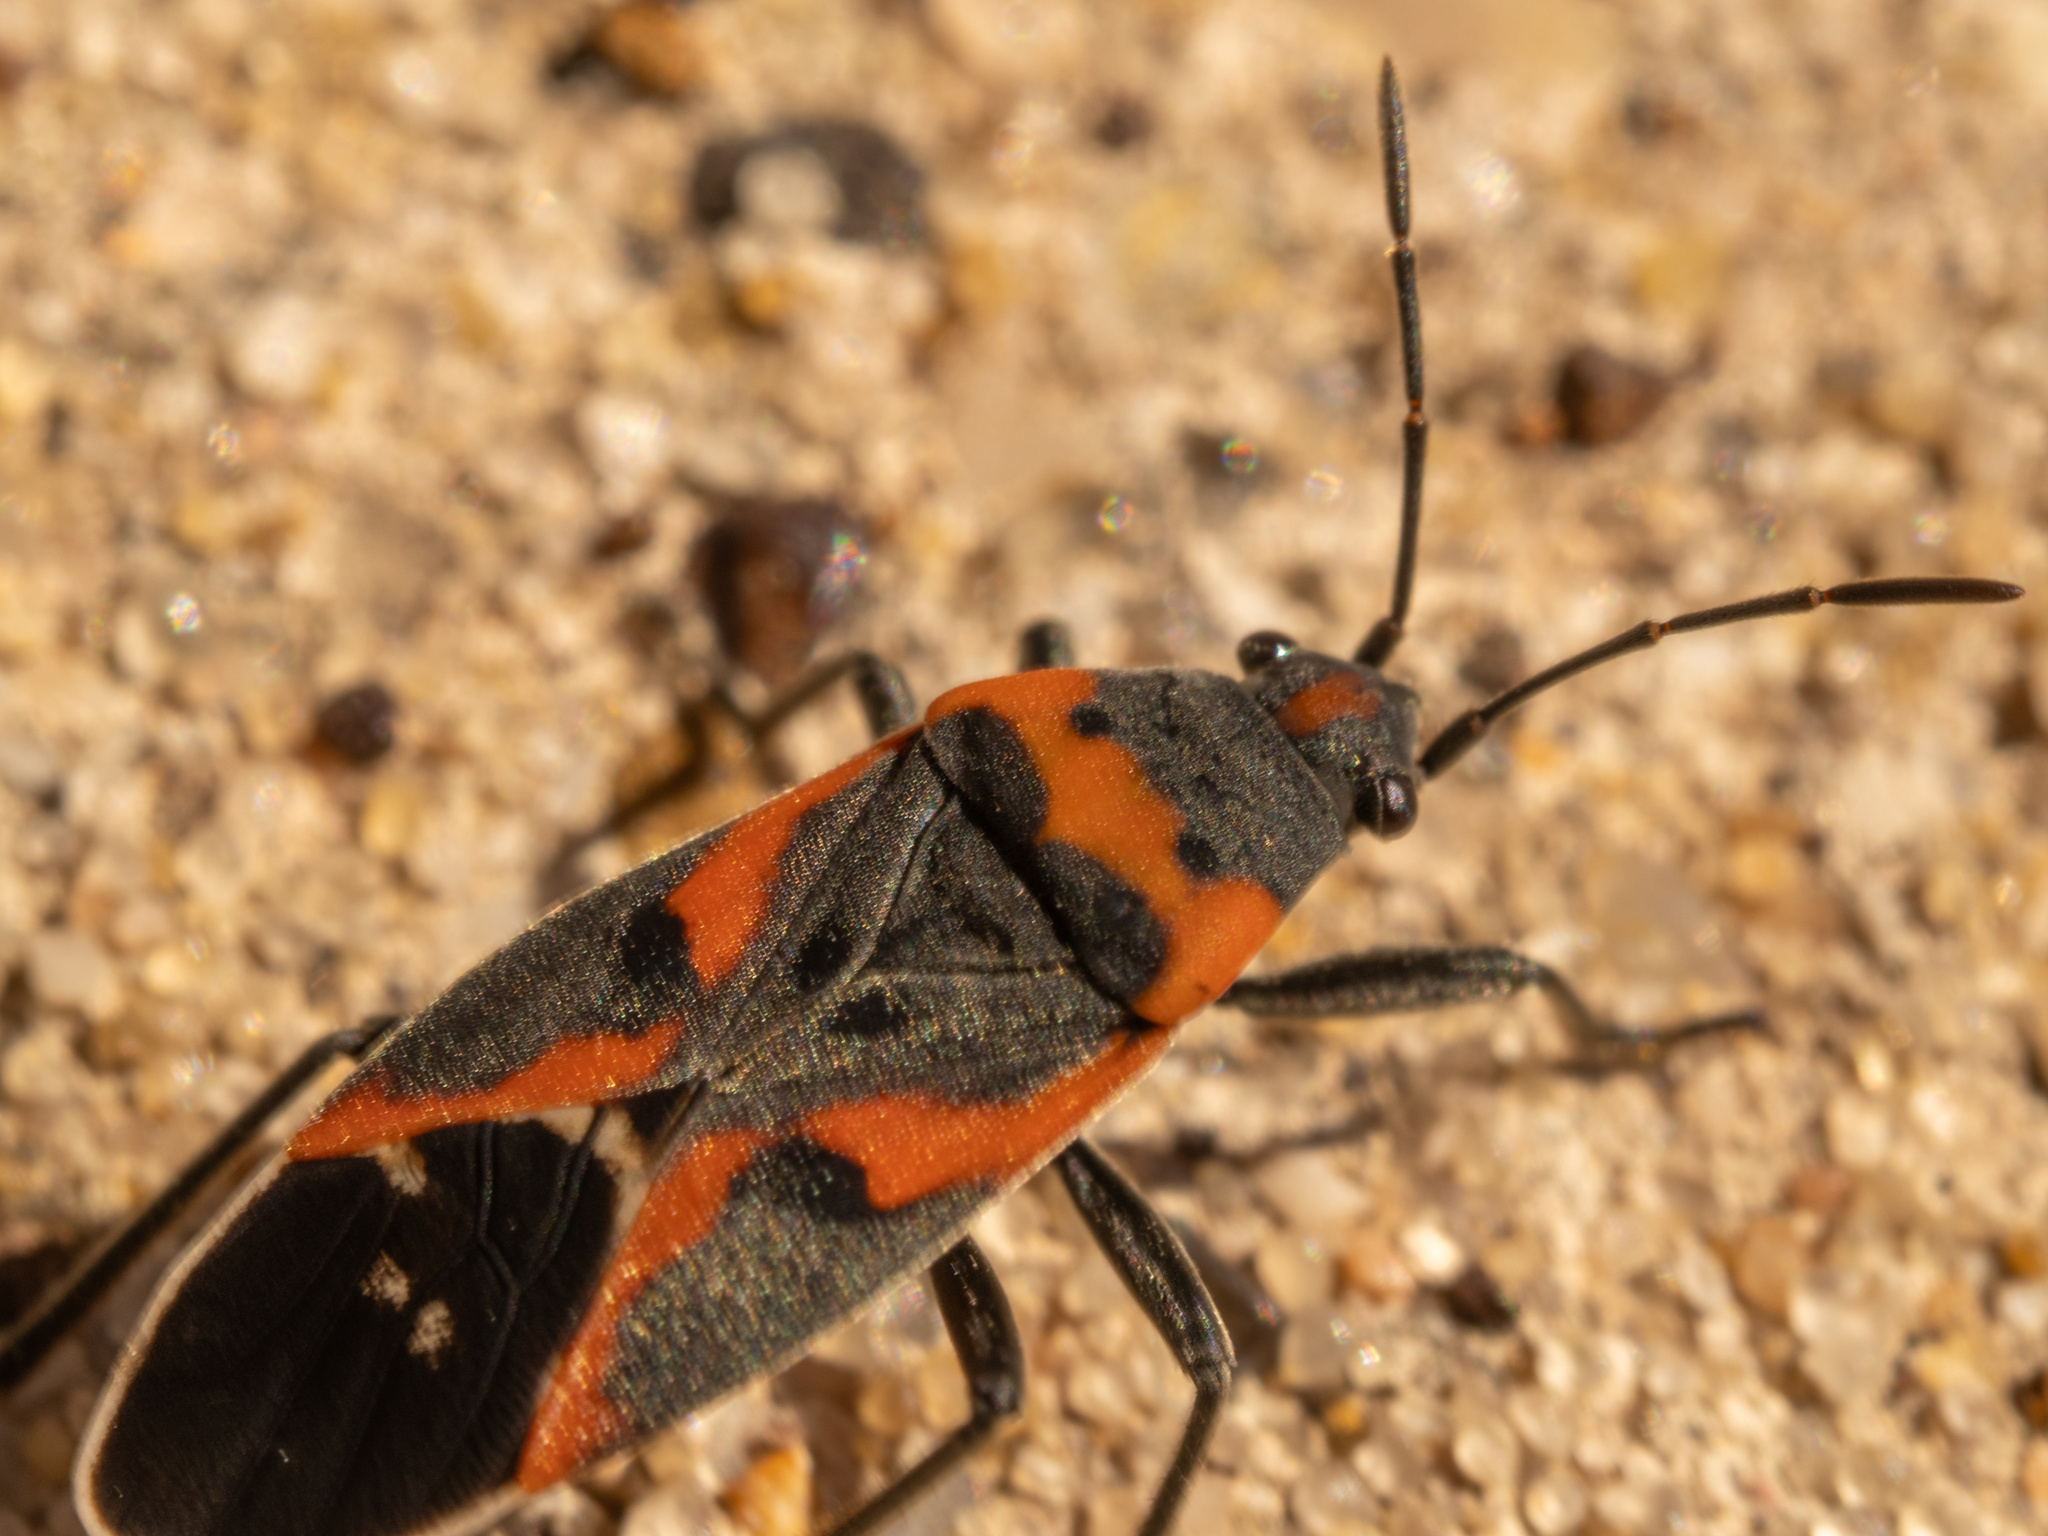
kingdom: Animalia
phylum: Arthropoda
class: Insecta
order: Hemiptera
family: Lygaeidae
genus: Lygaeus
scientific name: Lygaeus kalmii
